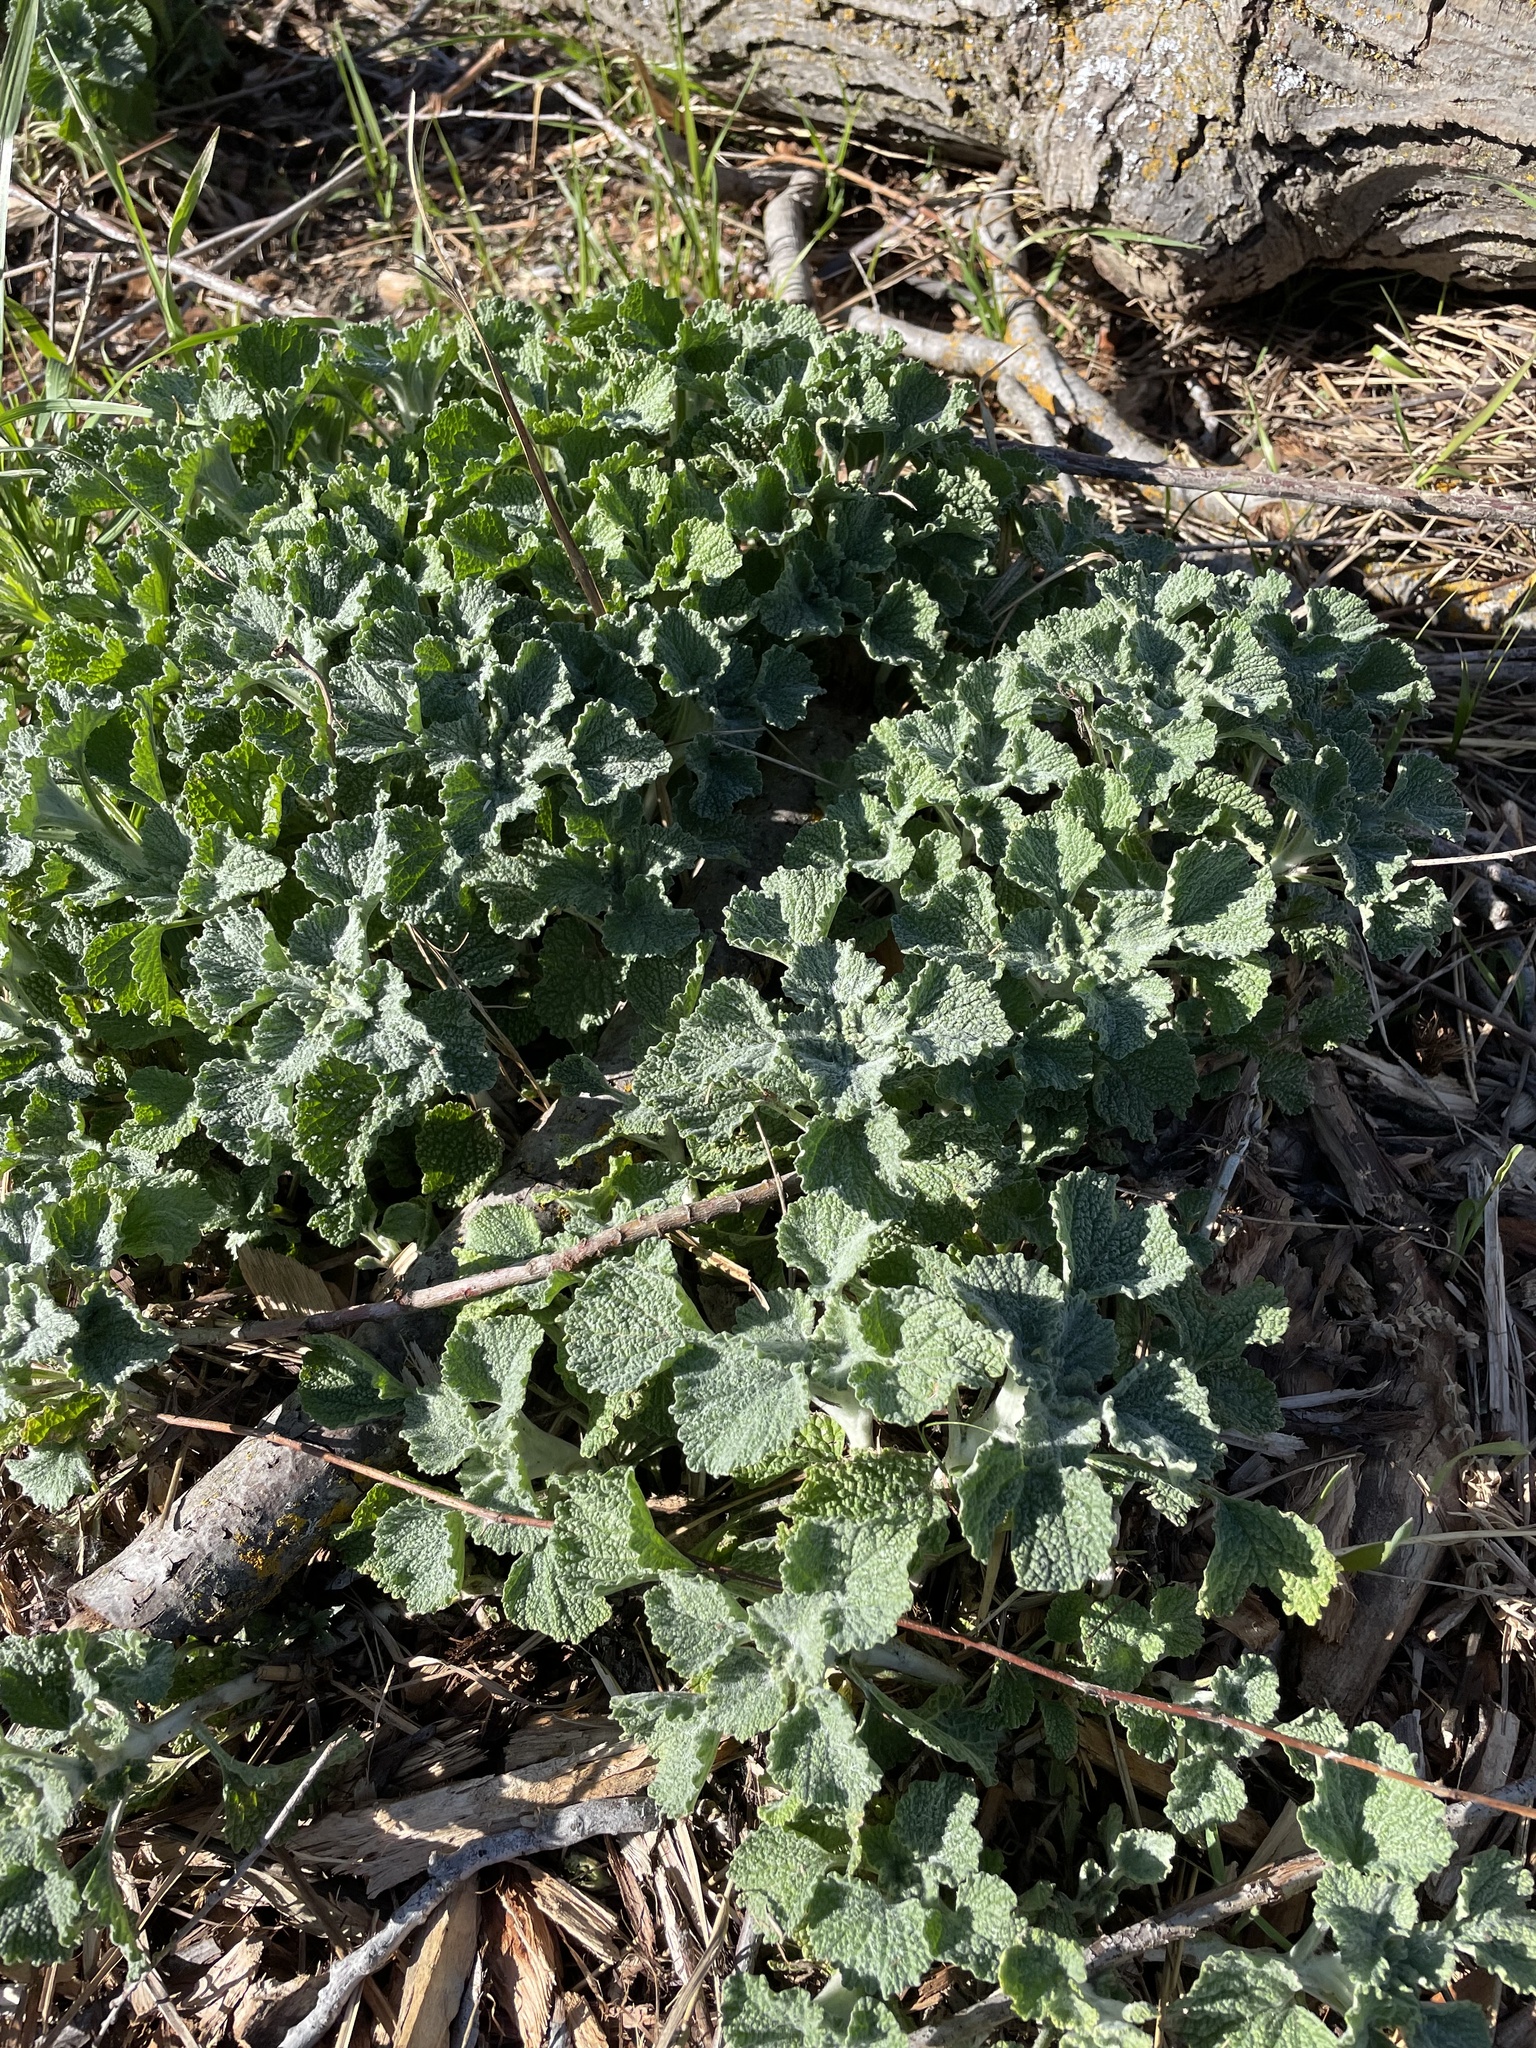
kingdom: Plantae
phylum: Tracheophyta
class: Magnoliopsida
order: Lamiales
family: Lamiaceae
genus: Marrubium
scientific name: Marrubium vulgare
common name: Horehound
